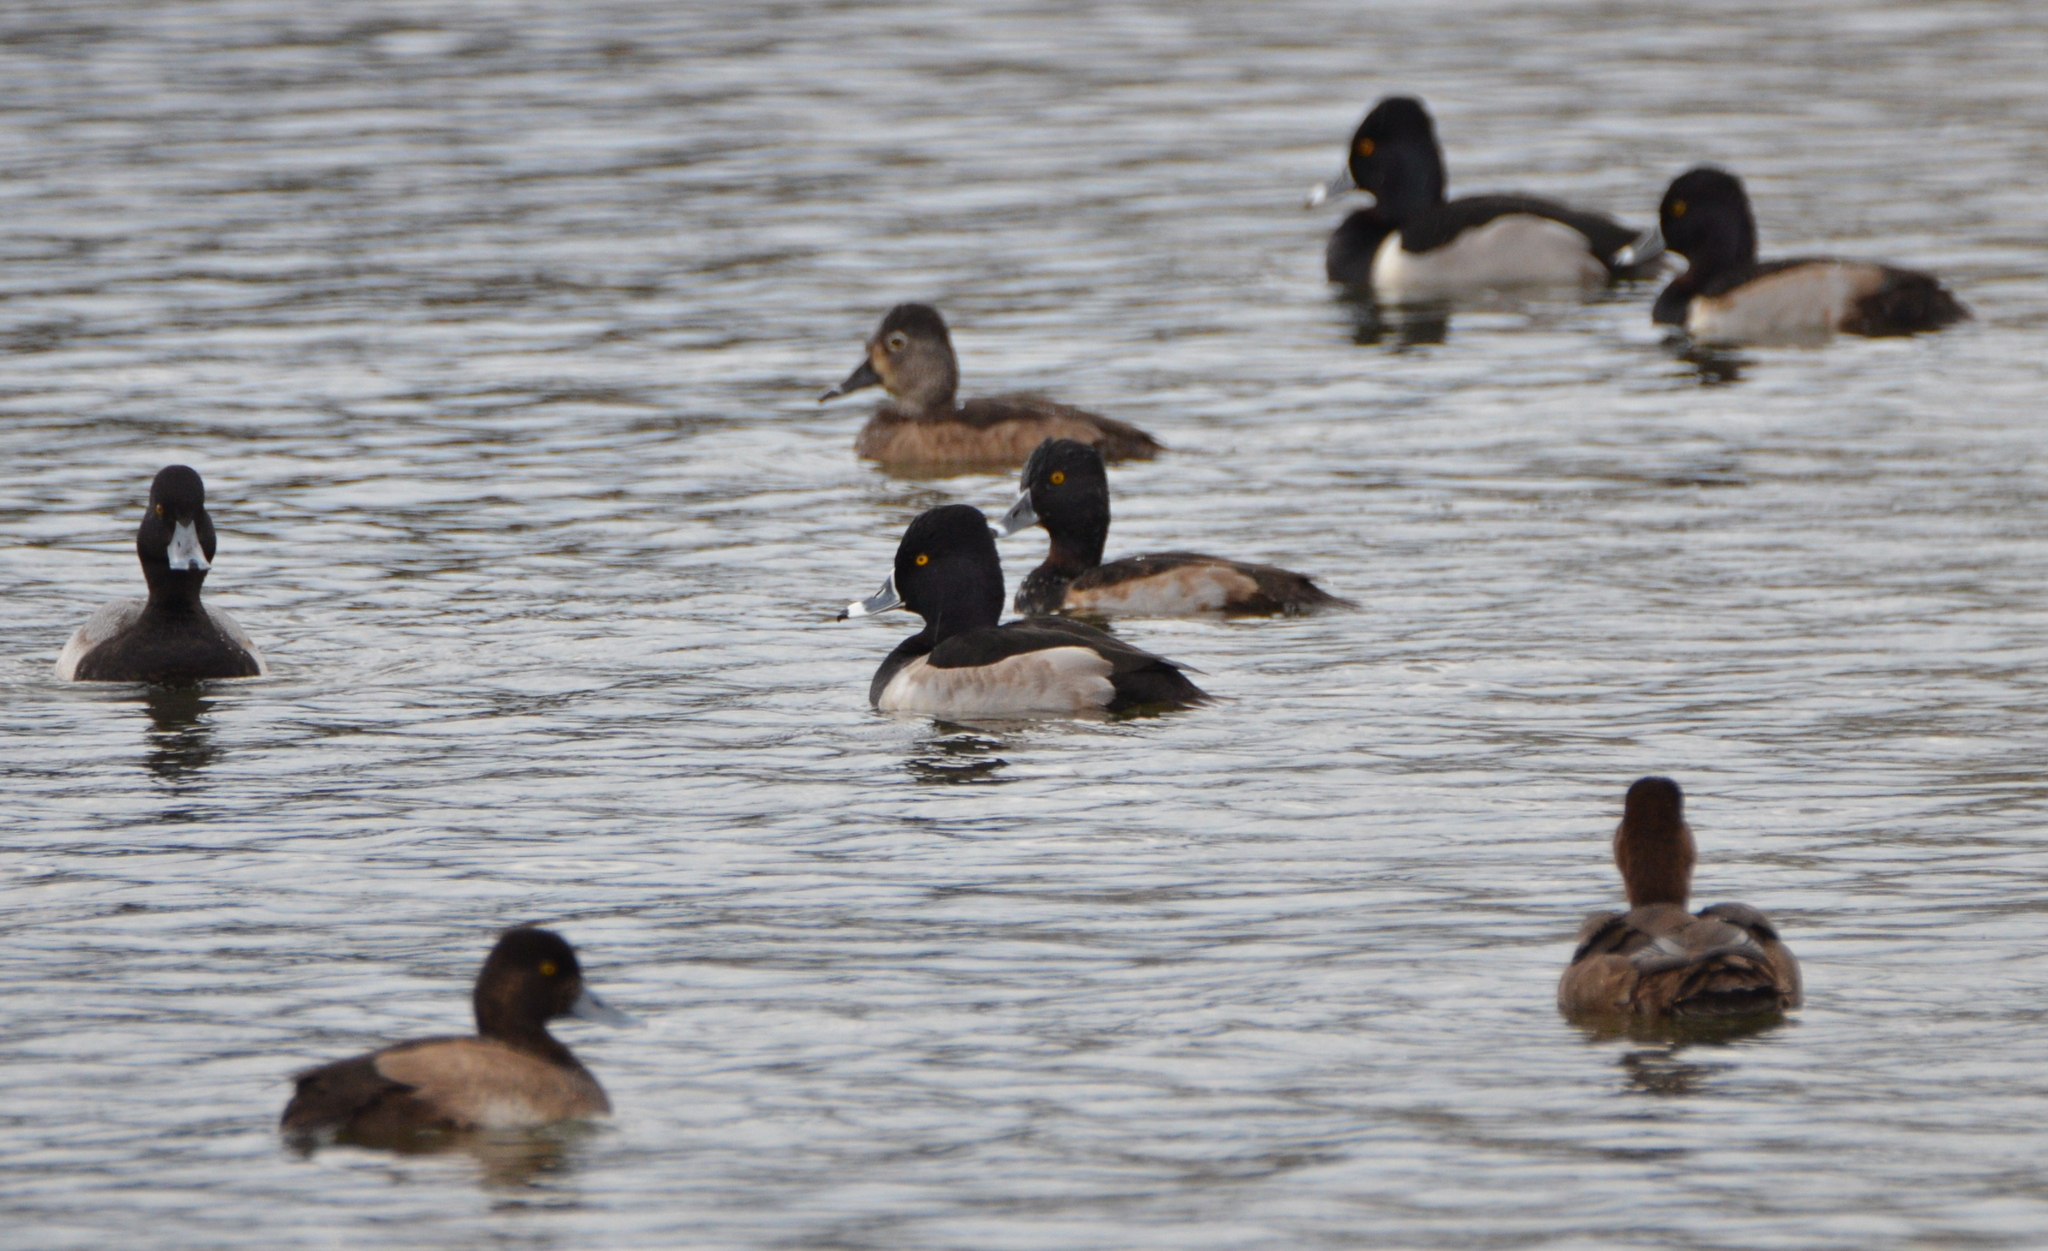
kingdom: Animalia
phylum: Chordata
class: Aves
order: Anseriformes
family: Anatidae
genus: Aythya
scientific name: Aythya collaris
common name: Ring-necked duck
